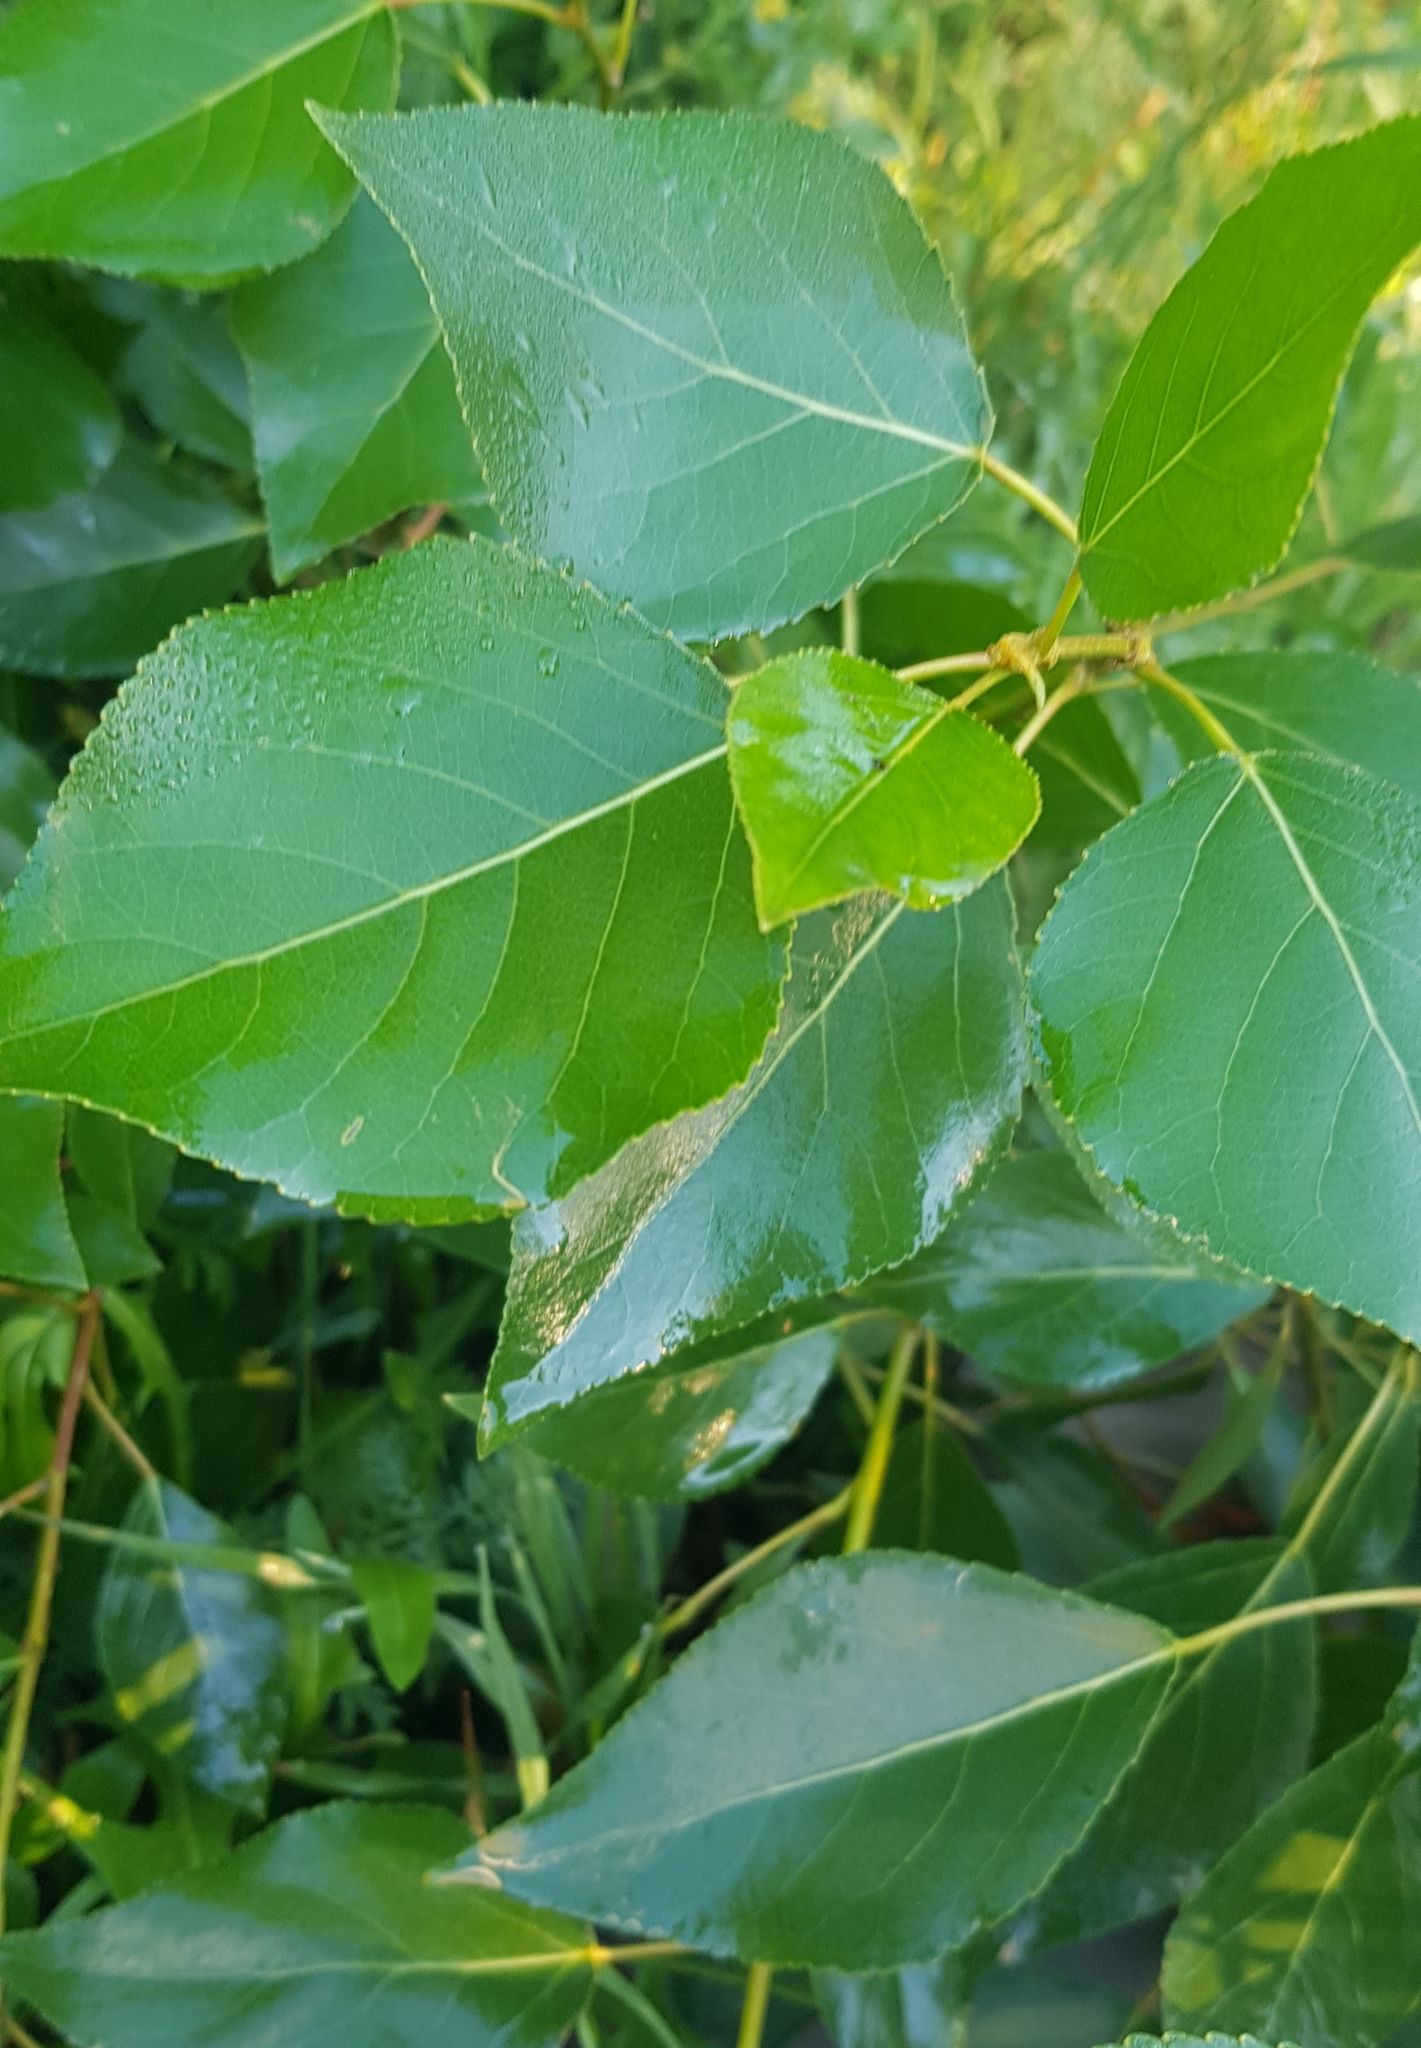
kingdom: Plantae
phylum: Tracheophyta
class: Magnoliopsida
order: Malpighiales
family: Salicaceae
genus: Populus
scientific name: Populus laurifolia
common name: Laurel-leaf poplar
